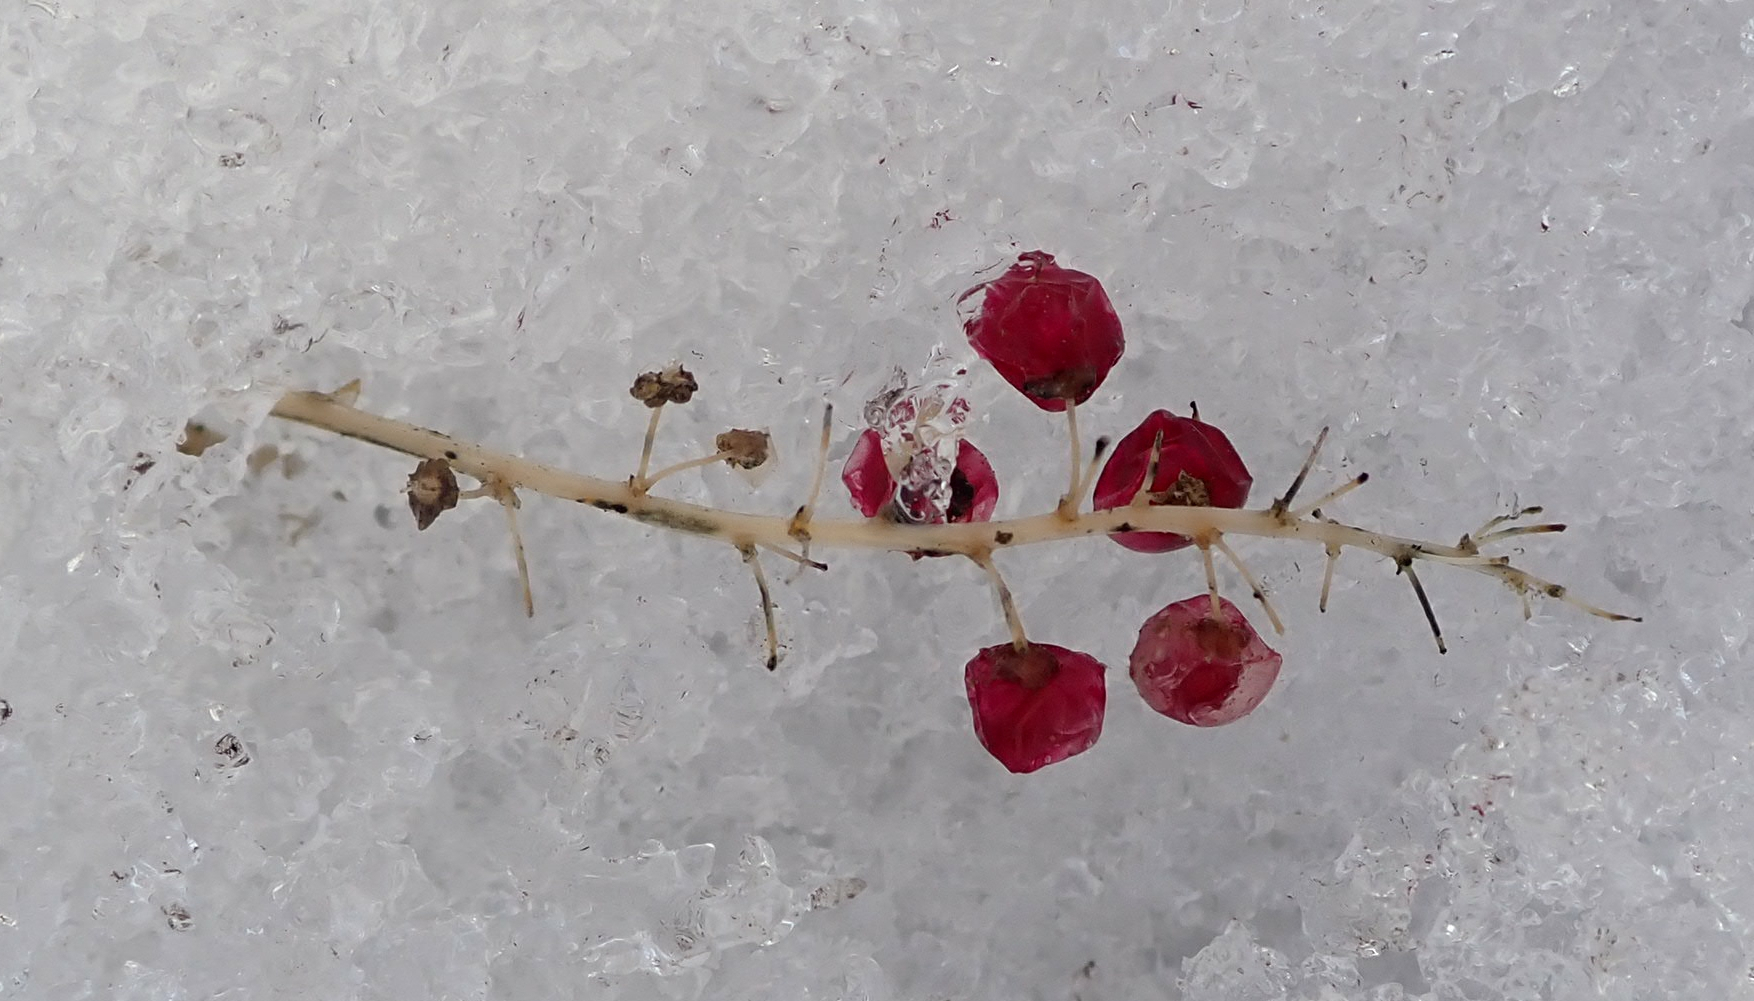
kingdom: Plantae
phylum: Tracheophyta
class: Liliopsida
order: Asparagales
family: Asparagaceae
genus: Maianthemum
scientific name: Maianthemum canadense
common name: False lily-of-the-valley
